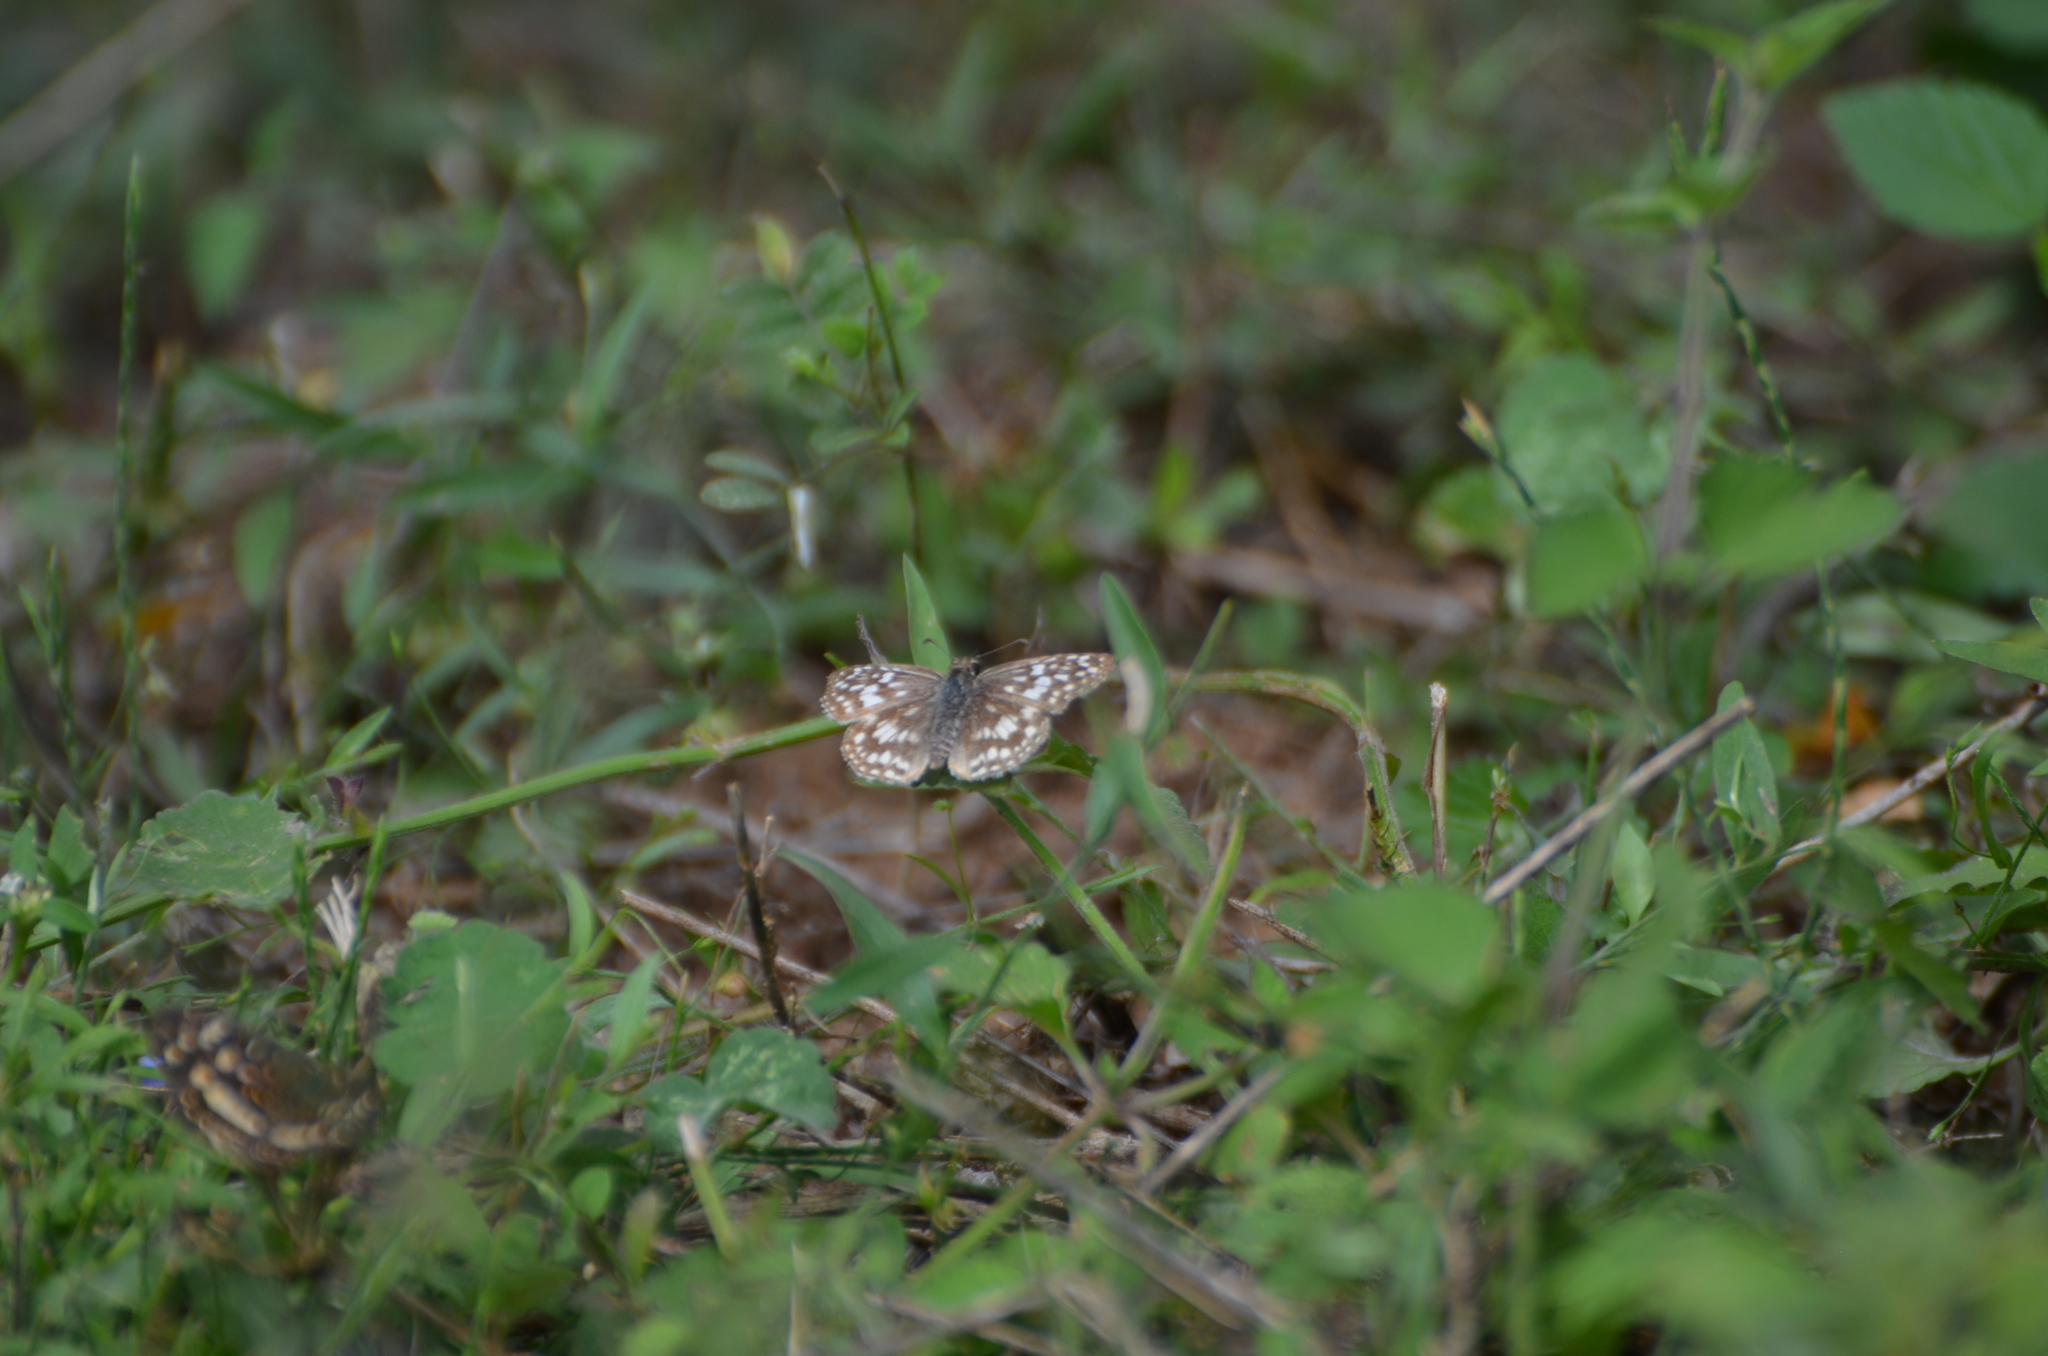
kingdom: Animalia
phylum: Arthropoda
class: Insecta
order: Lepidoptera
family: Hesperiidae
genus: Pyrgus
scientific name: Pyrgus oileus
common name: Tropical checkered-skipper
